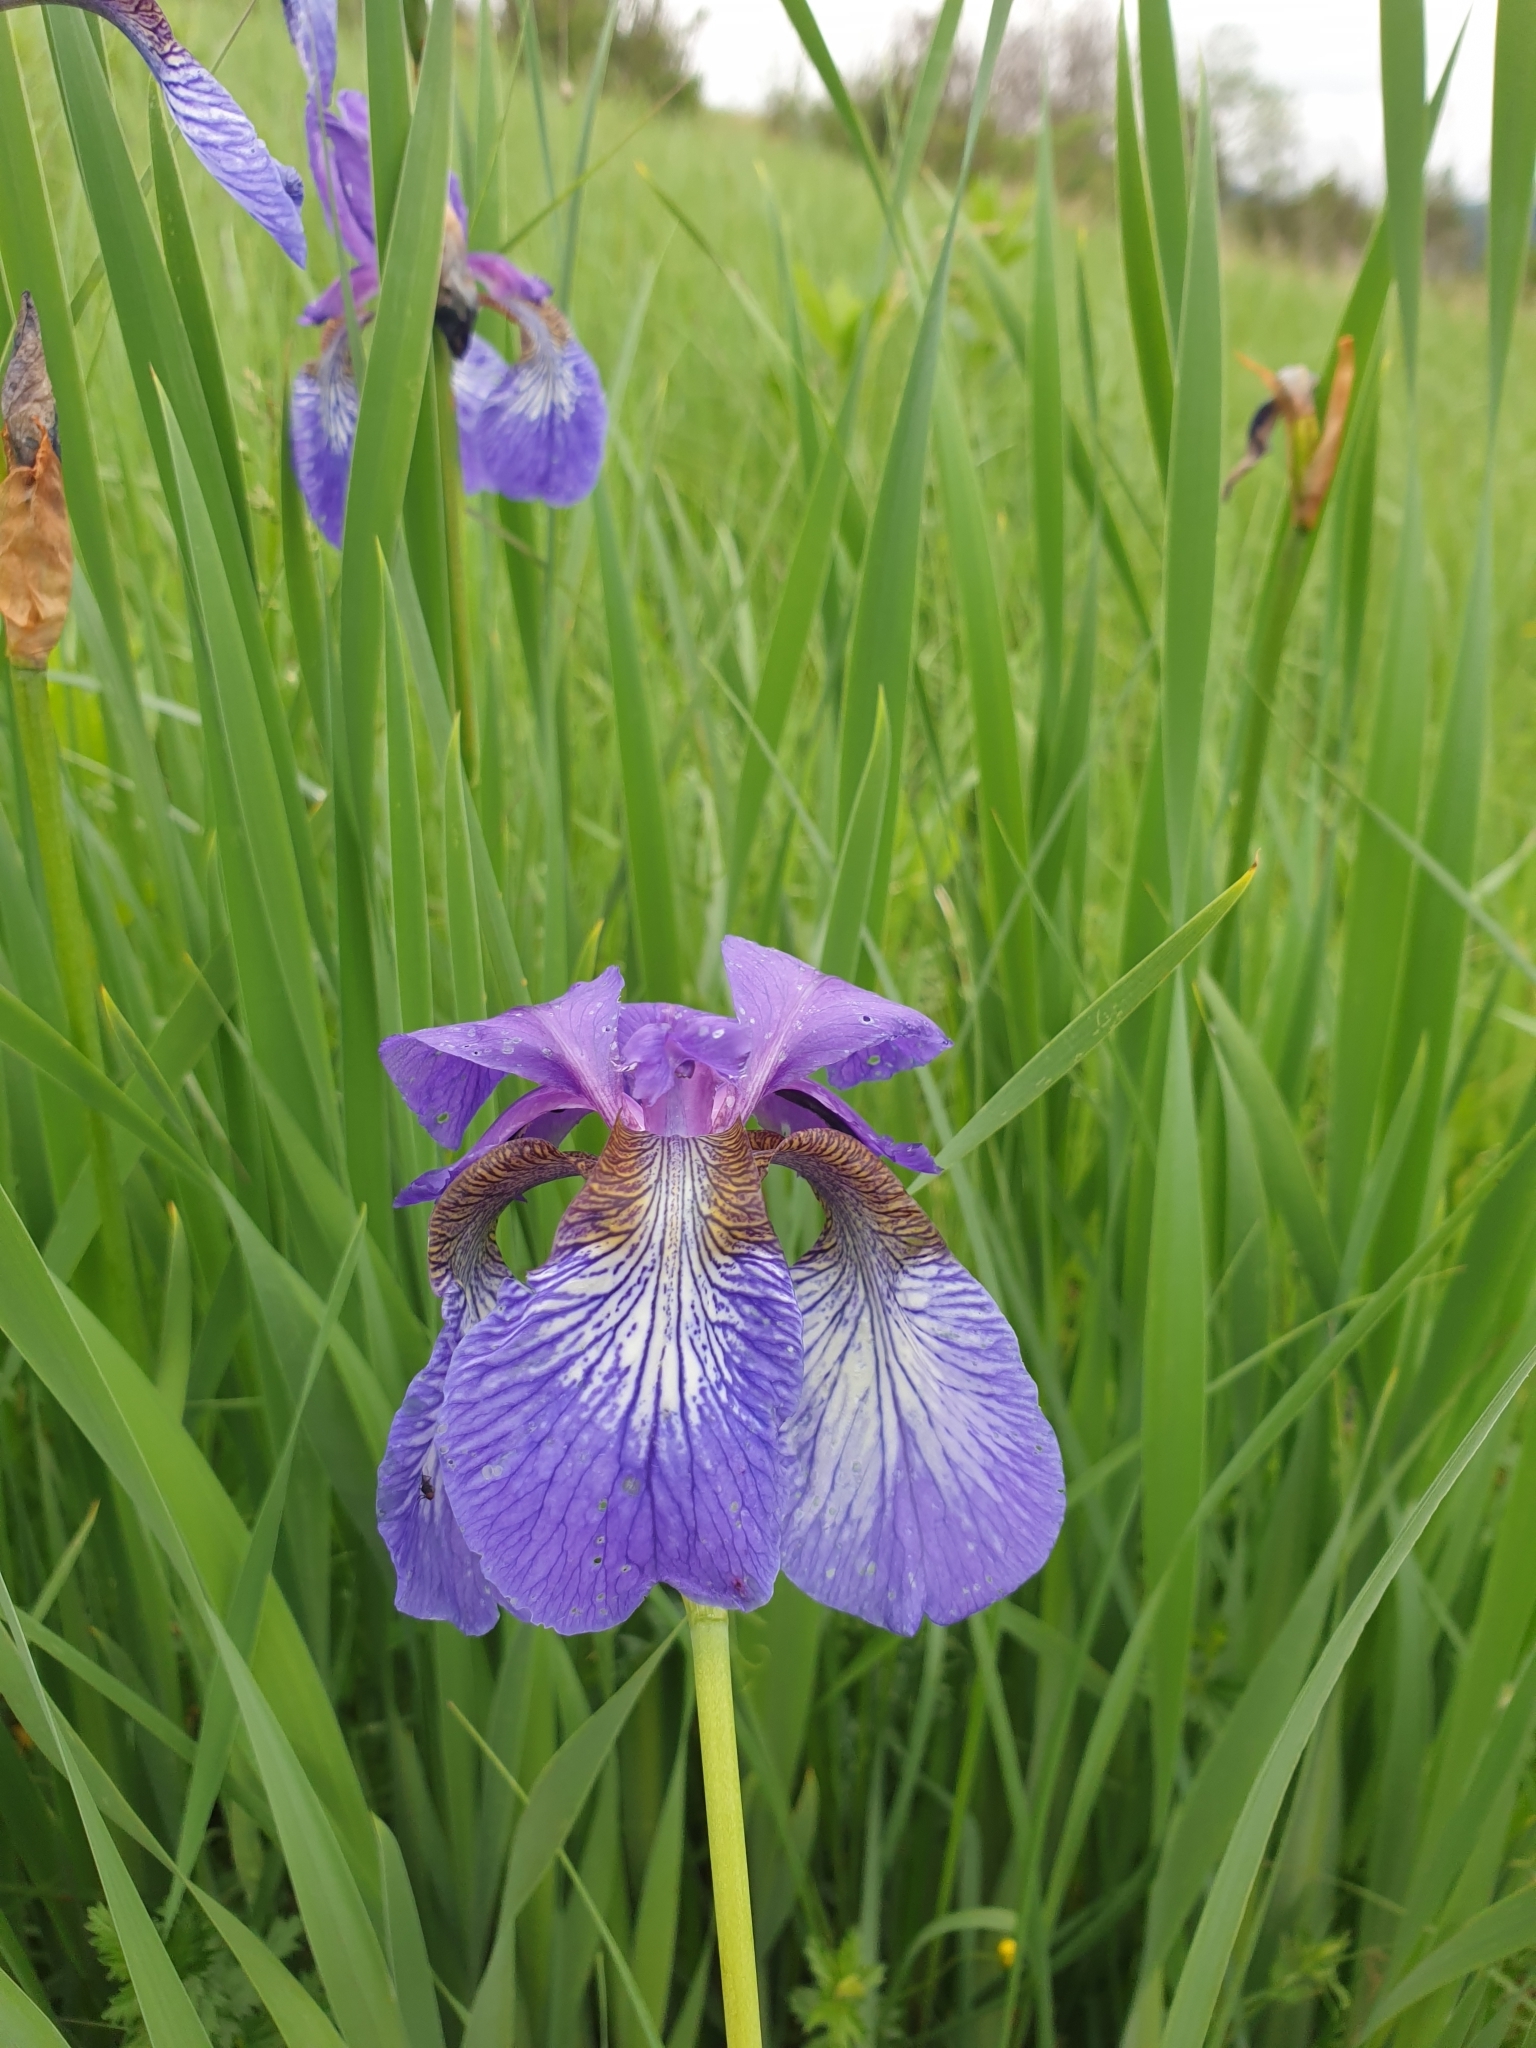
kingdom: Plantae
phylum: Tracheophyta
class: Liliopsida
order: Asparagales
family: Iridaceae
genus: Iris
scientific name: Iris sibirica
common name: Siberian iris
